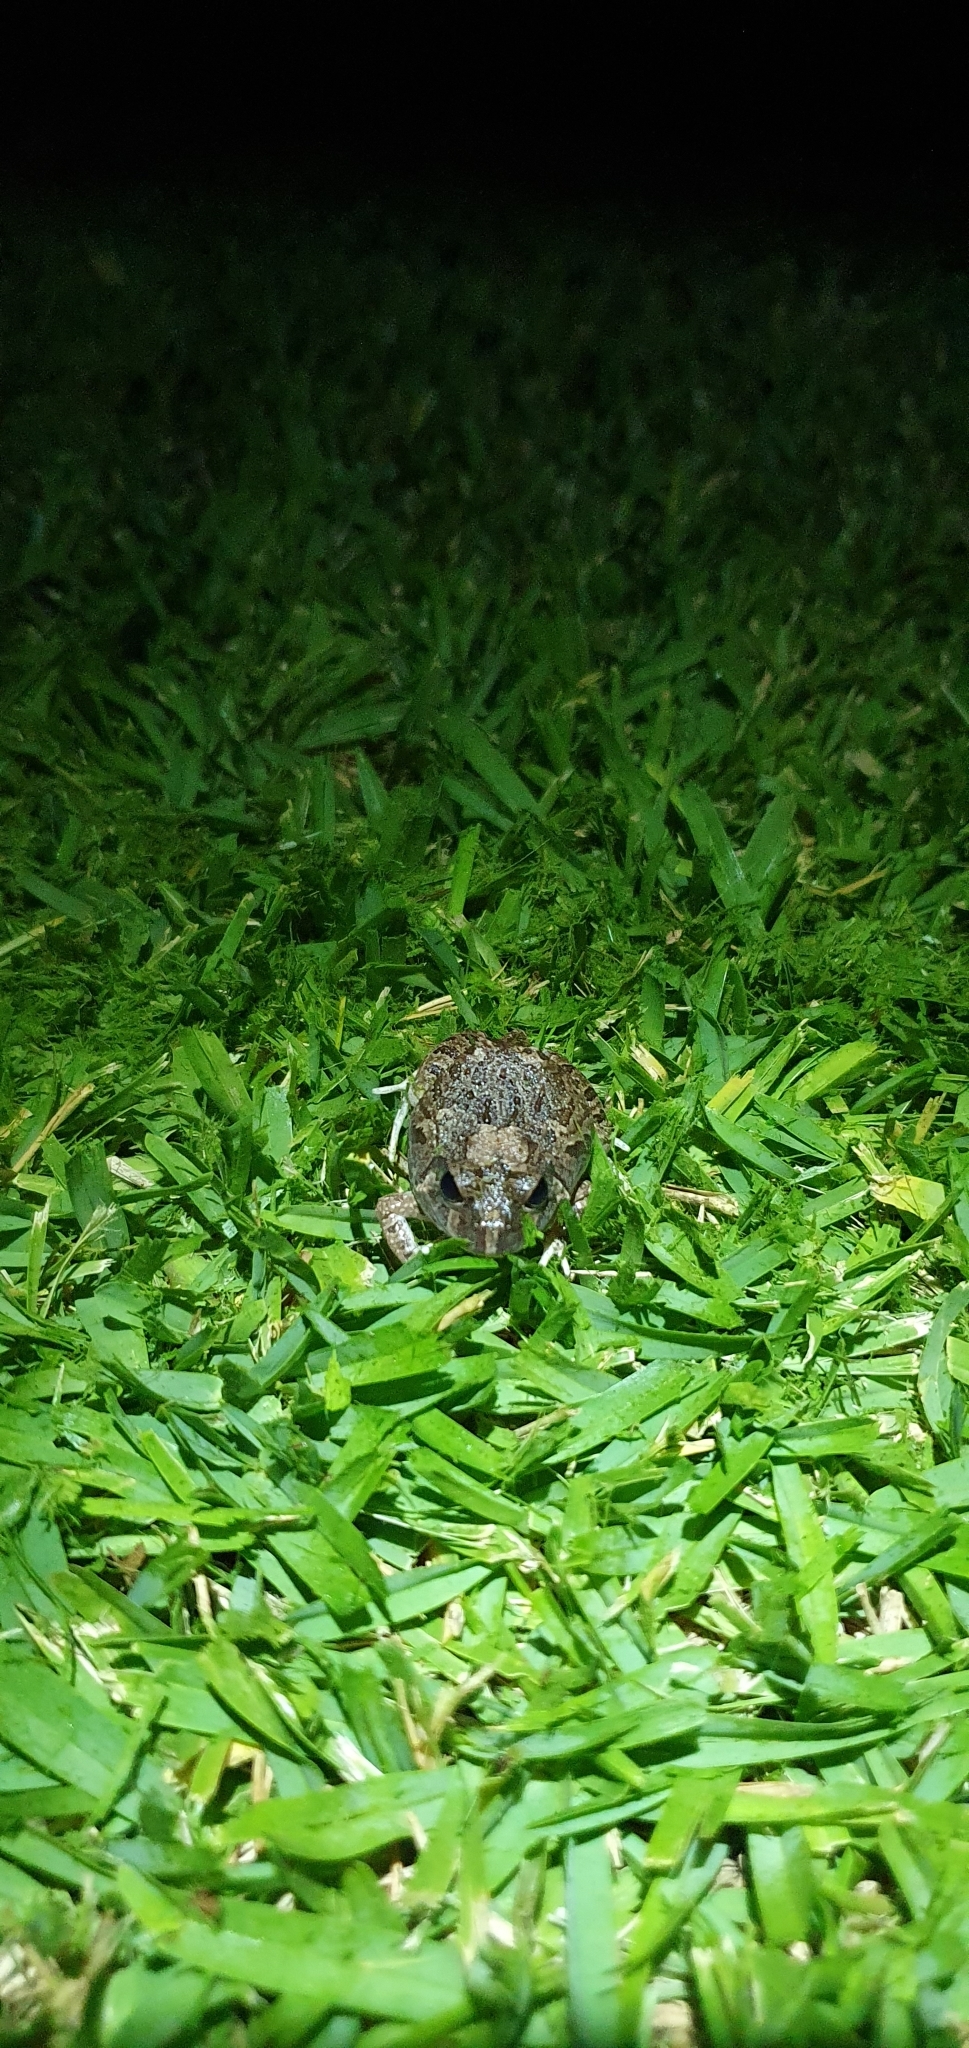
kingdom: Animalia
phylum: Chordata
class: Amphibia
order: Anura
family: Limnodynastidae
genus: Platyplectrum
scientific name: Platyplectrum ornatum
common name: Ornate burrowing frog
